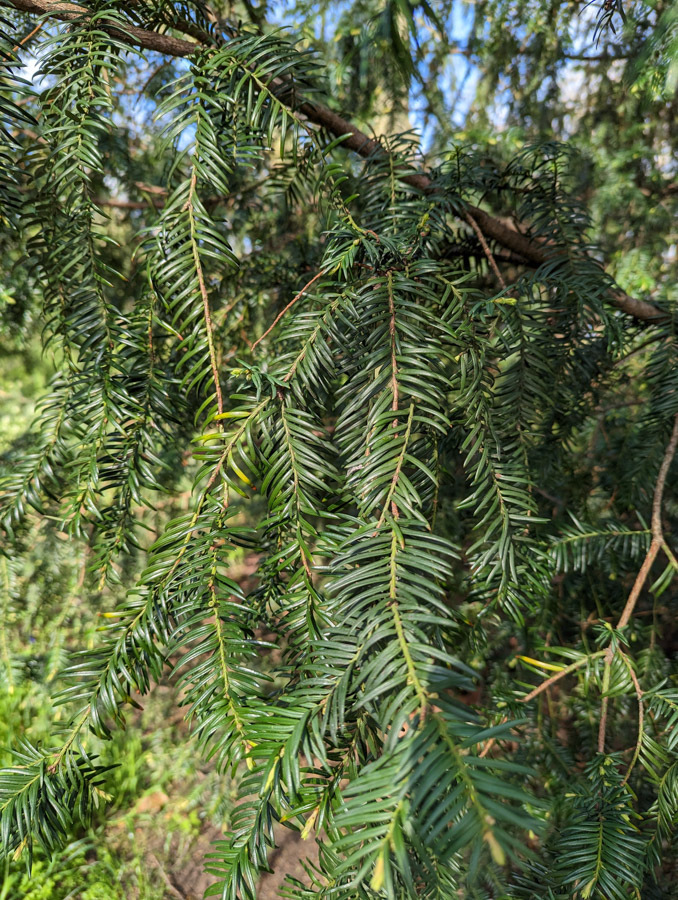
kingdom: Plantae
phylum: Tracheophyta
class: Pinopsida
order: Pinales
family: Taxaceae
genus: Taxus
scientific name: Taxus baccata
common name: Yew
